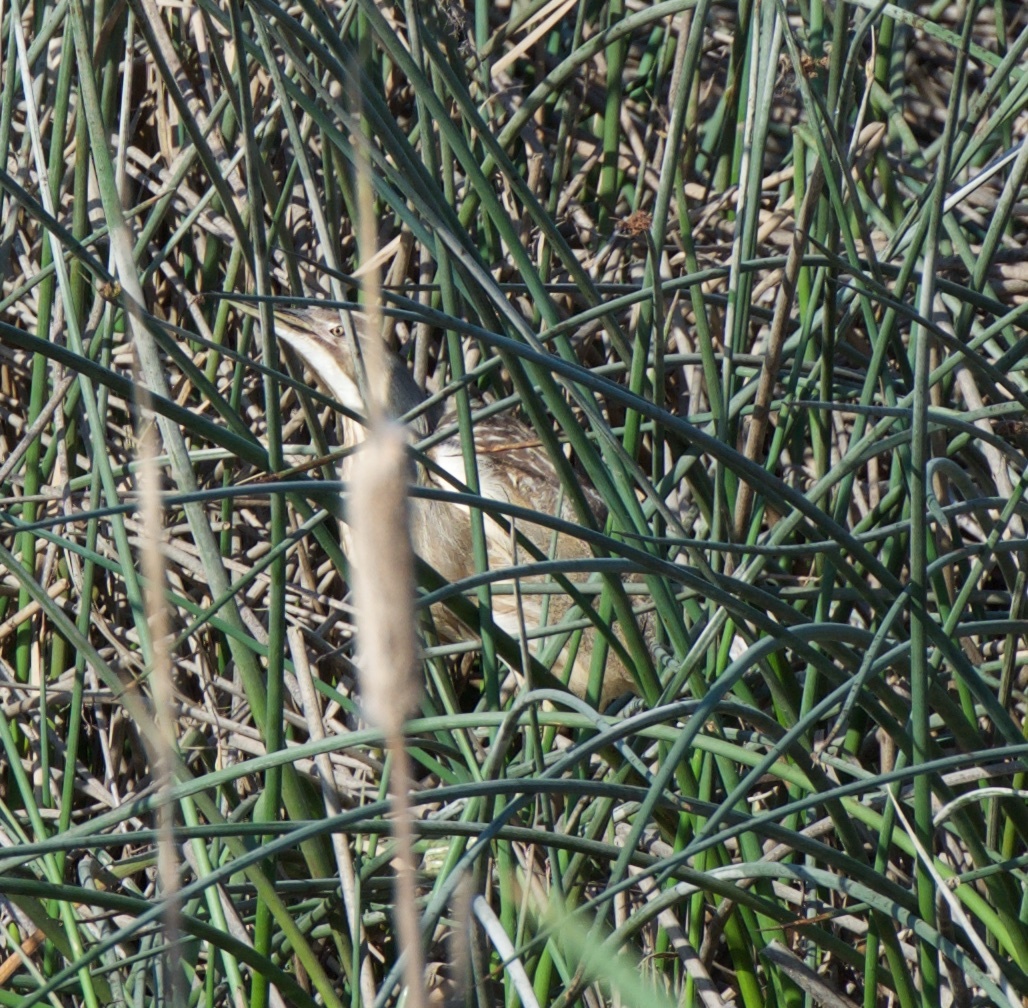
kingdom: Animalia
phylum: Chordata
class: Aves
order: Pelecaniformes
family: Ardeidae
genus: Botaurus
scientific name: Botaurus lentiginosus
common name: American bittern
